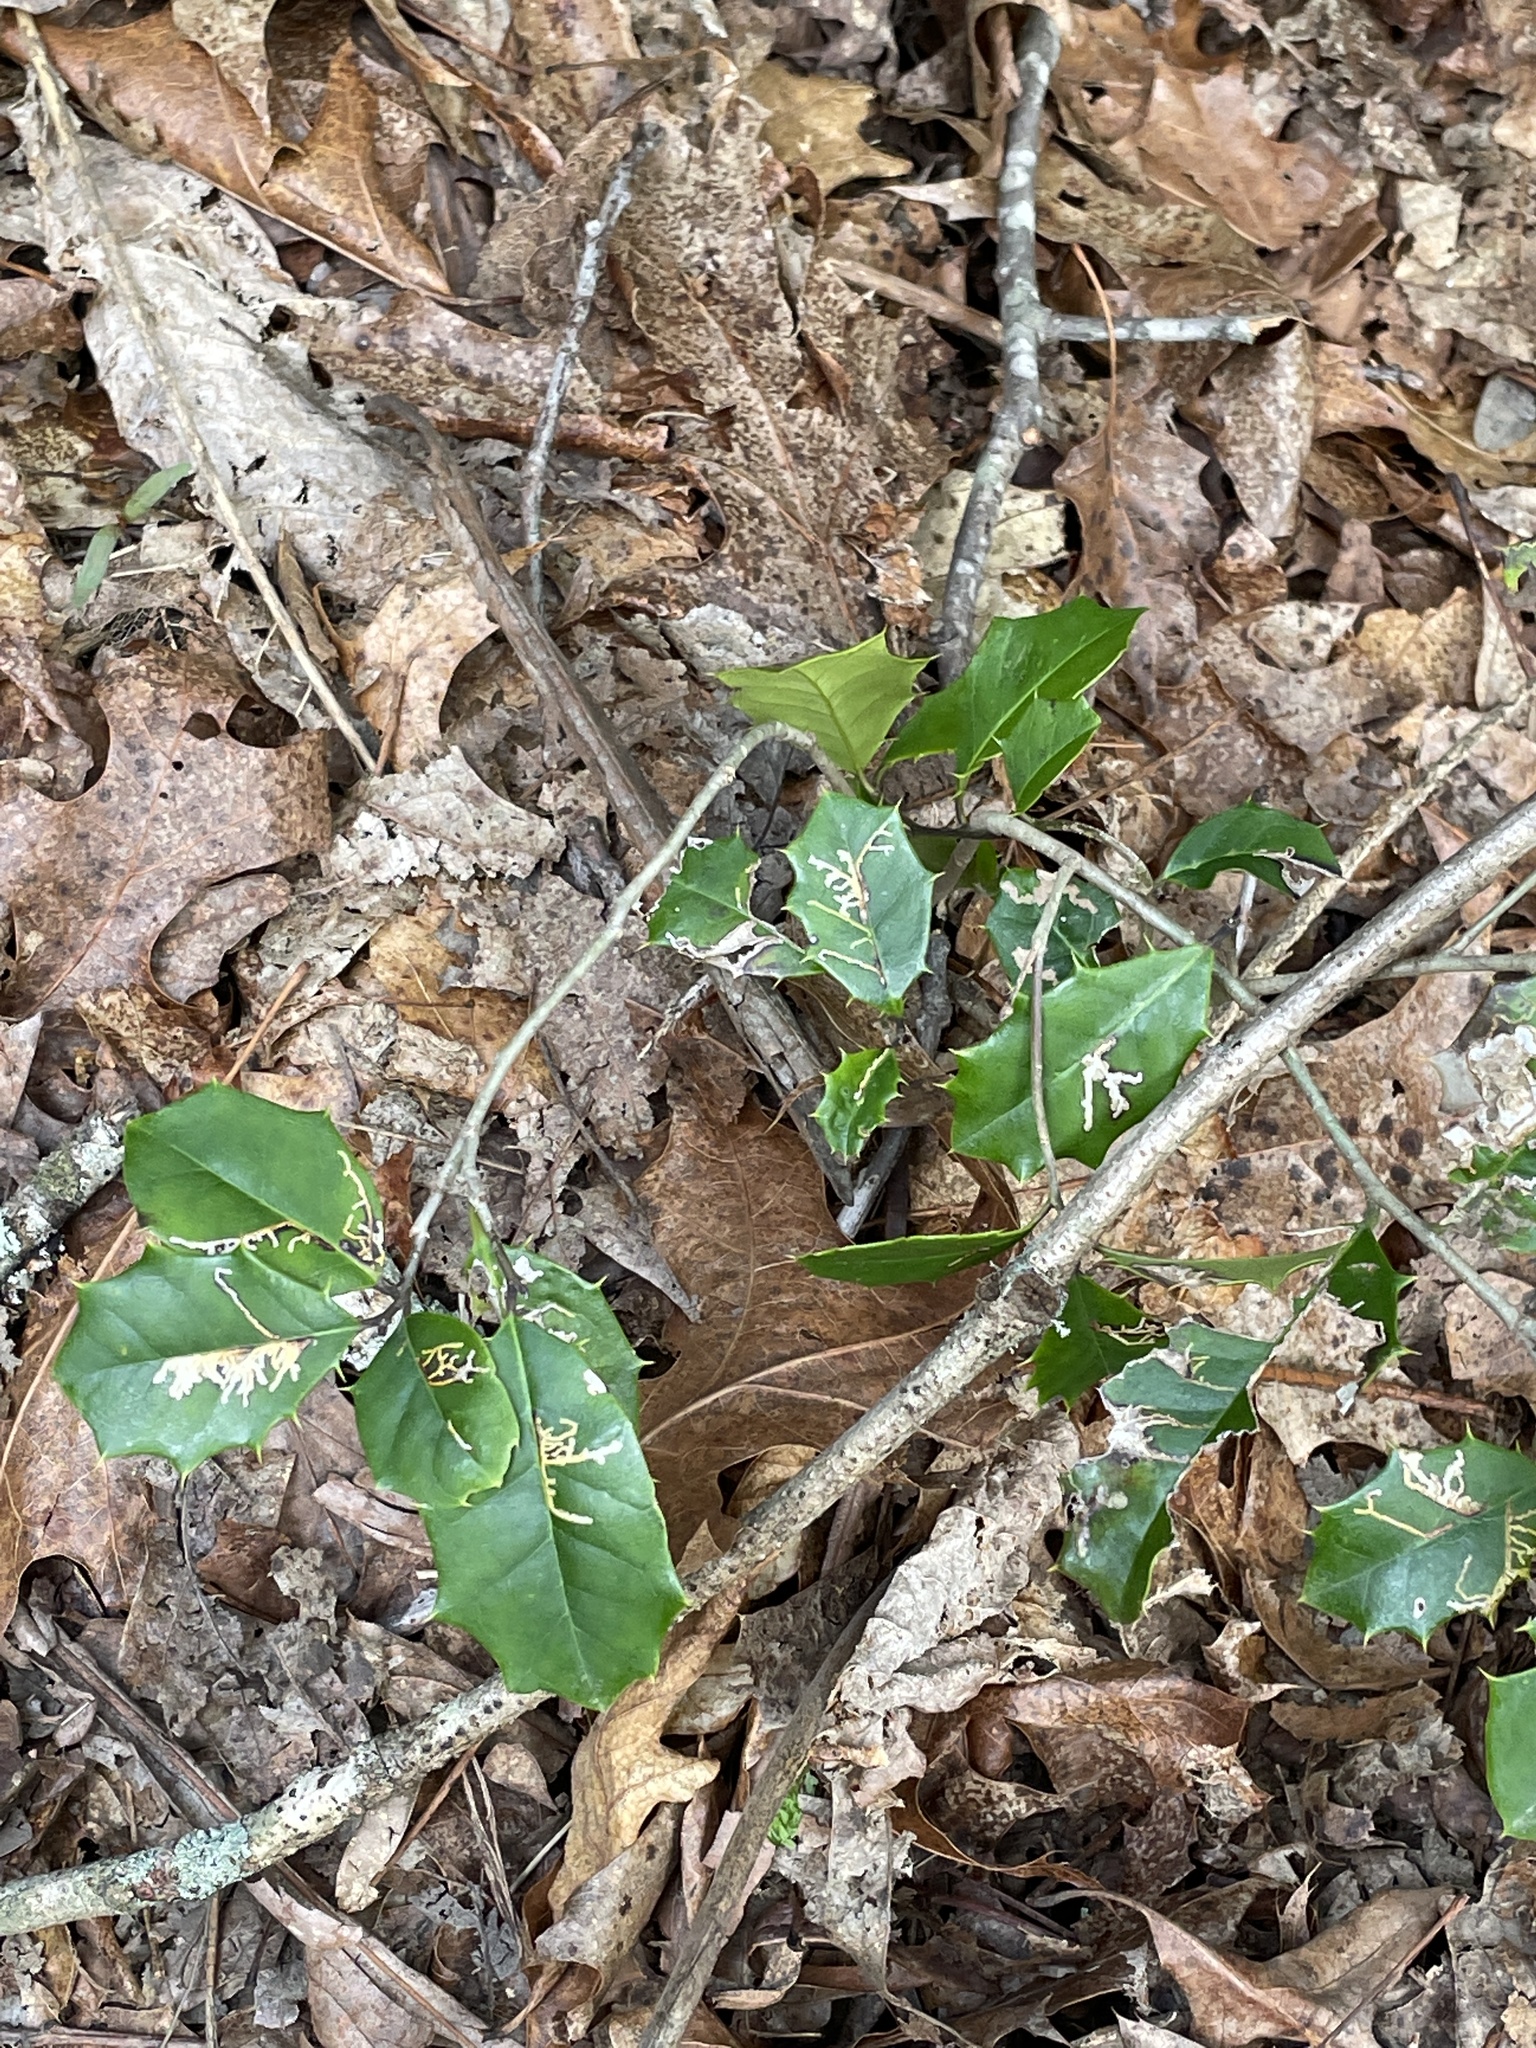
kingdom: Plantae
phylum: Tracheophyta
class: Magnoliopsida
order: Aquifoliales
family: Aquifoliaceae
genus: Ilex
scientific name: Ilex opaca
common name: American holly
